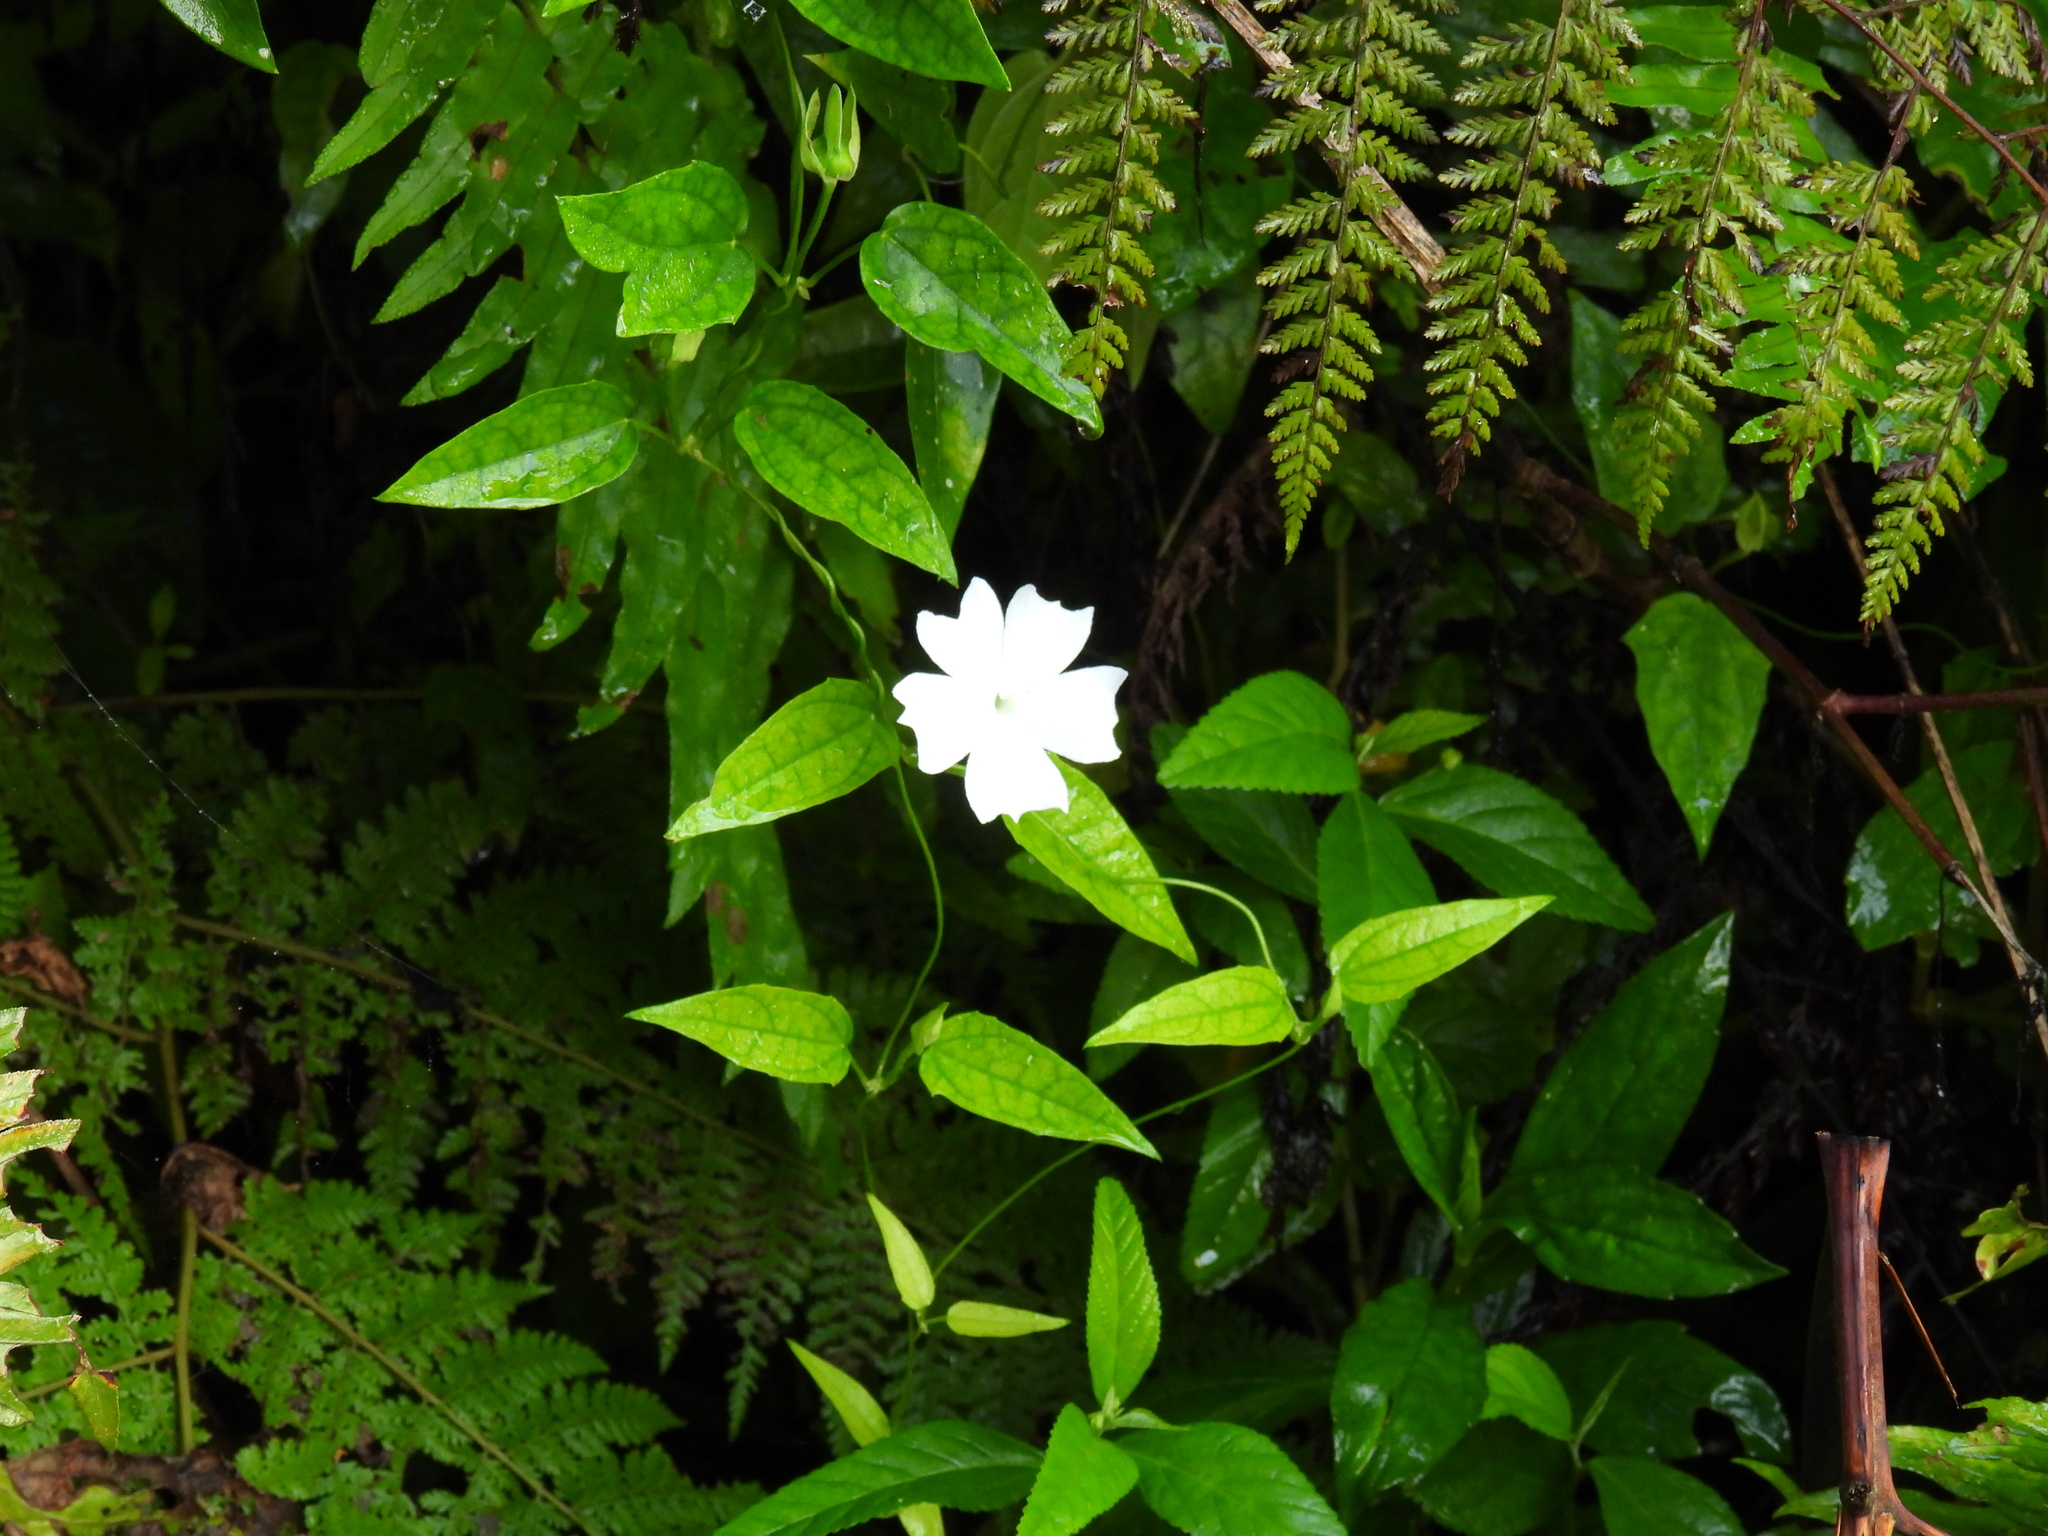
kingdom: Plantae
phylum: Tracheophyta
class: Magnoliopsida
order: Lamiales
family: Acanthaceae
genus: Thunbergia
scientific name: Thunbergia fragrans
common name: Whitelady
